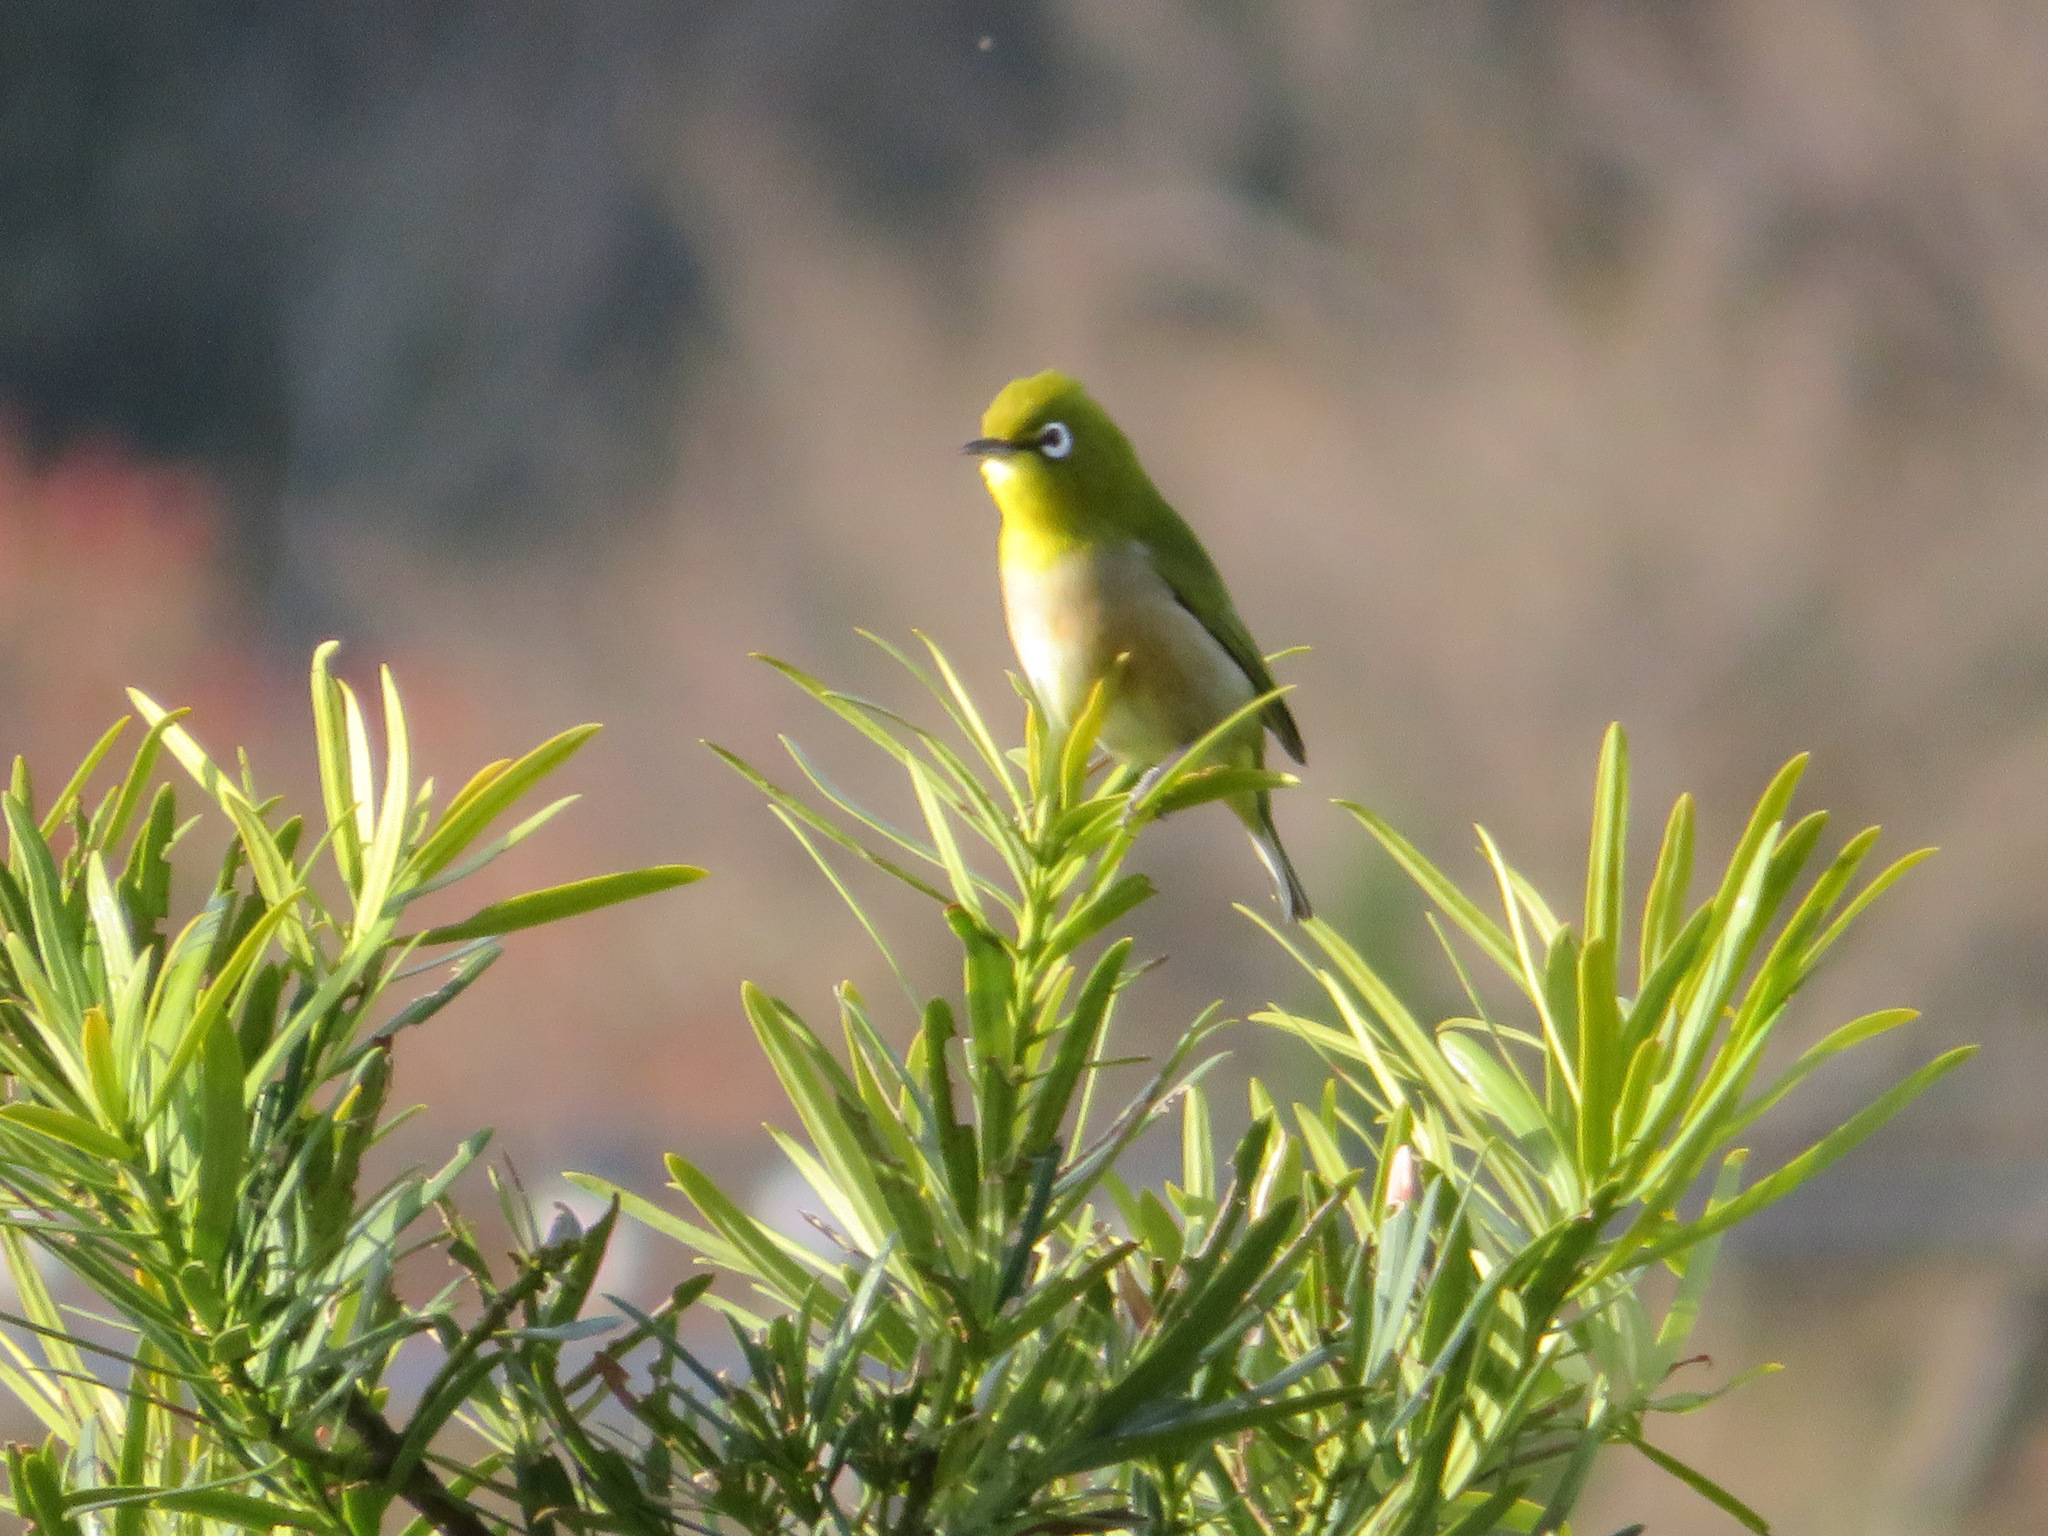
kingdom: Animalia
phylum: Chordata
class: Aves
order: Passeriformes
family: Zosteropidae
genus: Zosterops
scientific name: Zosterops japonicus
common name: Japanese white-eye
